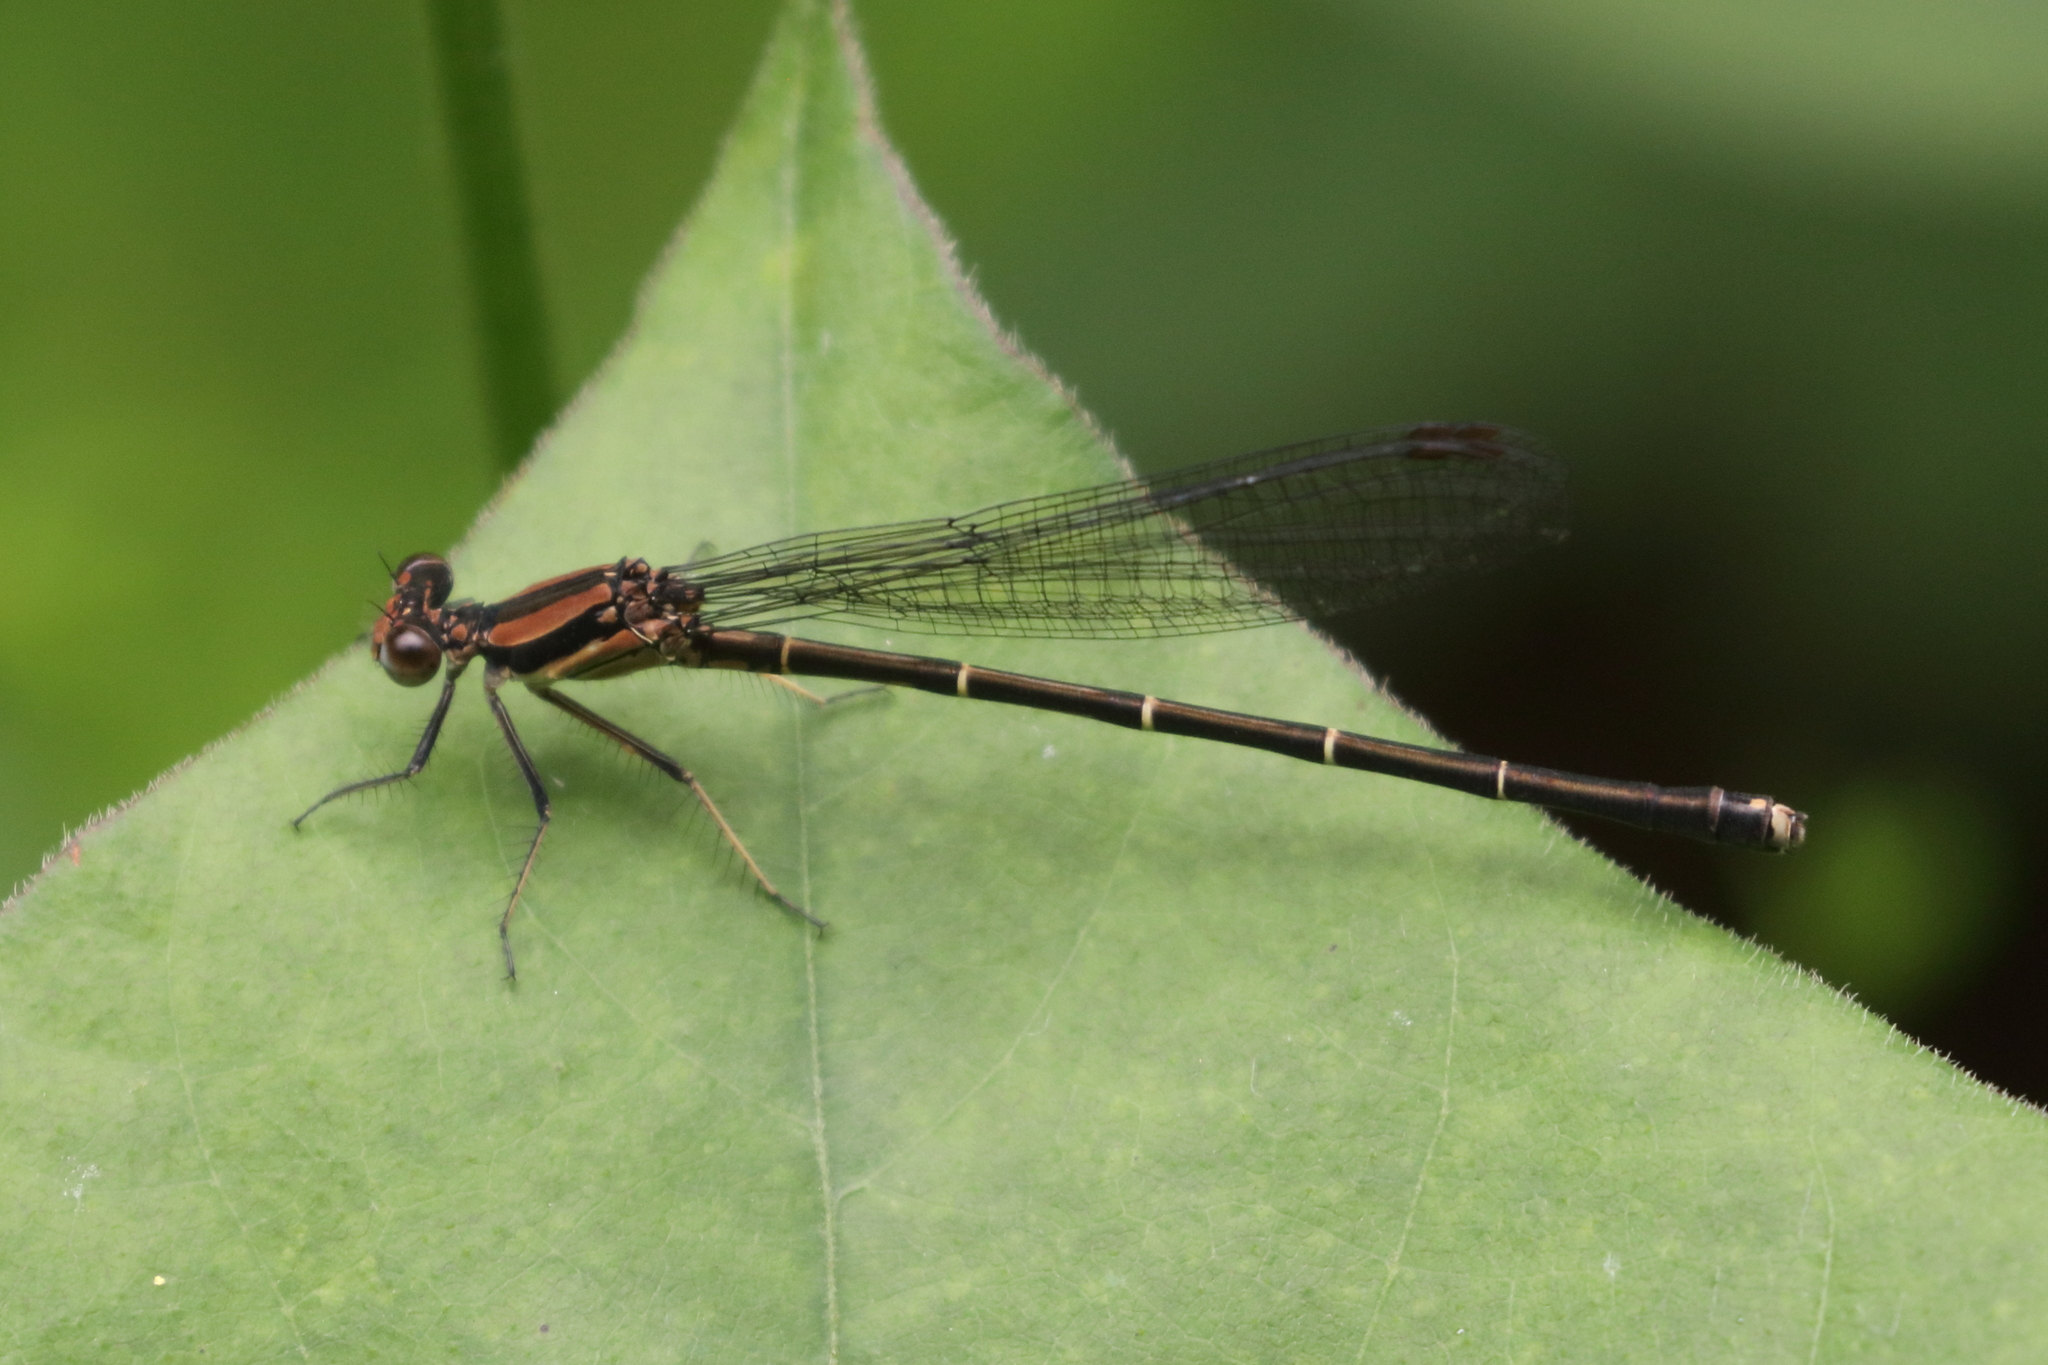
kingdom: Animalia
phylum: Arthropoda
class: Insecta
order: Odonata
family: Coenagrionidae
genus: Argia
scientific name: Argia tibialis
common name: Blue-tipped dancer
